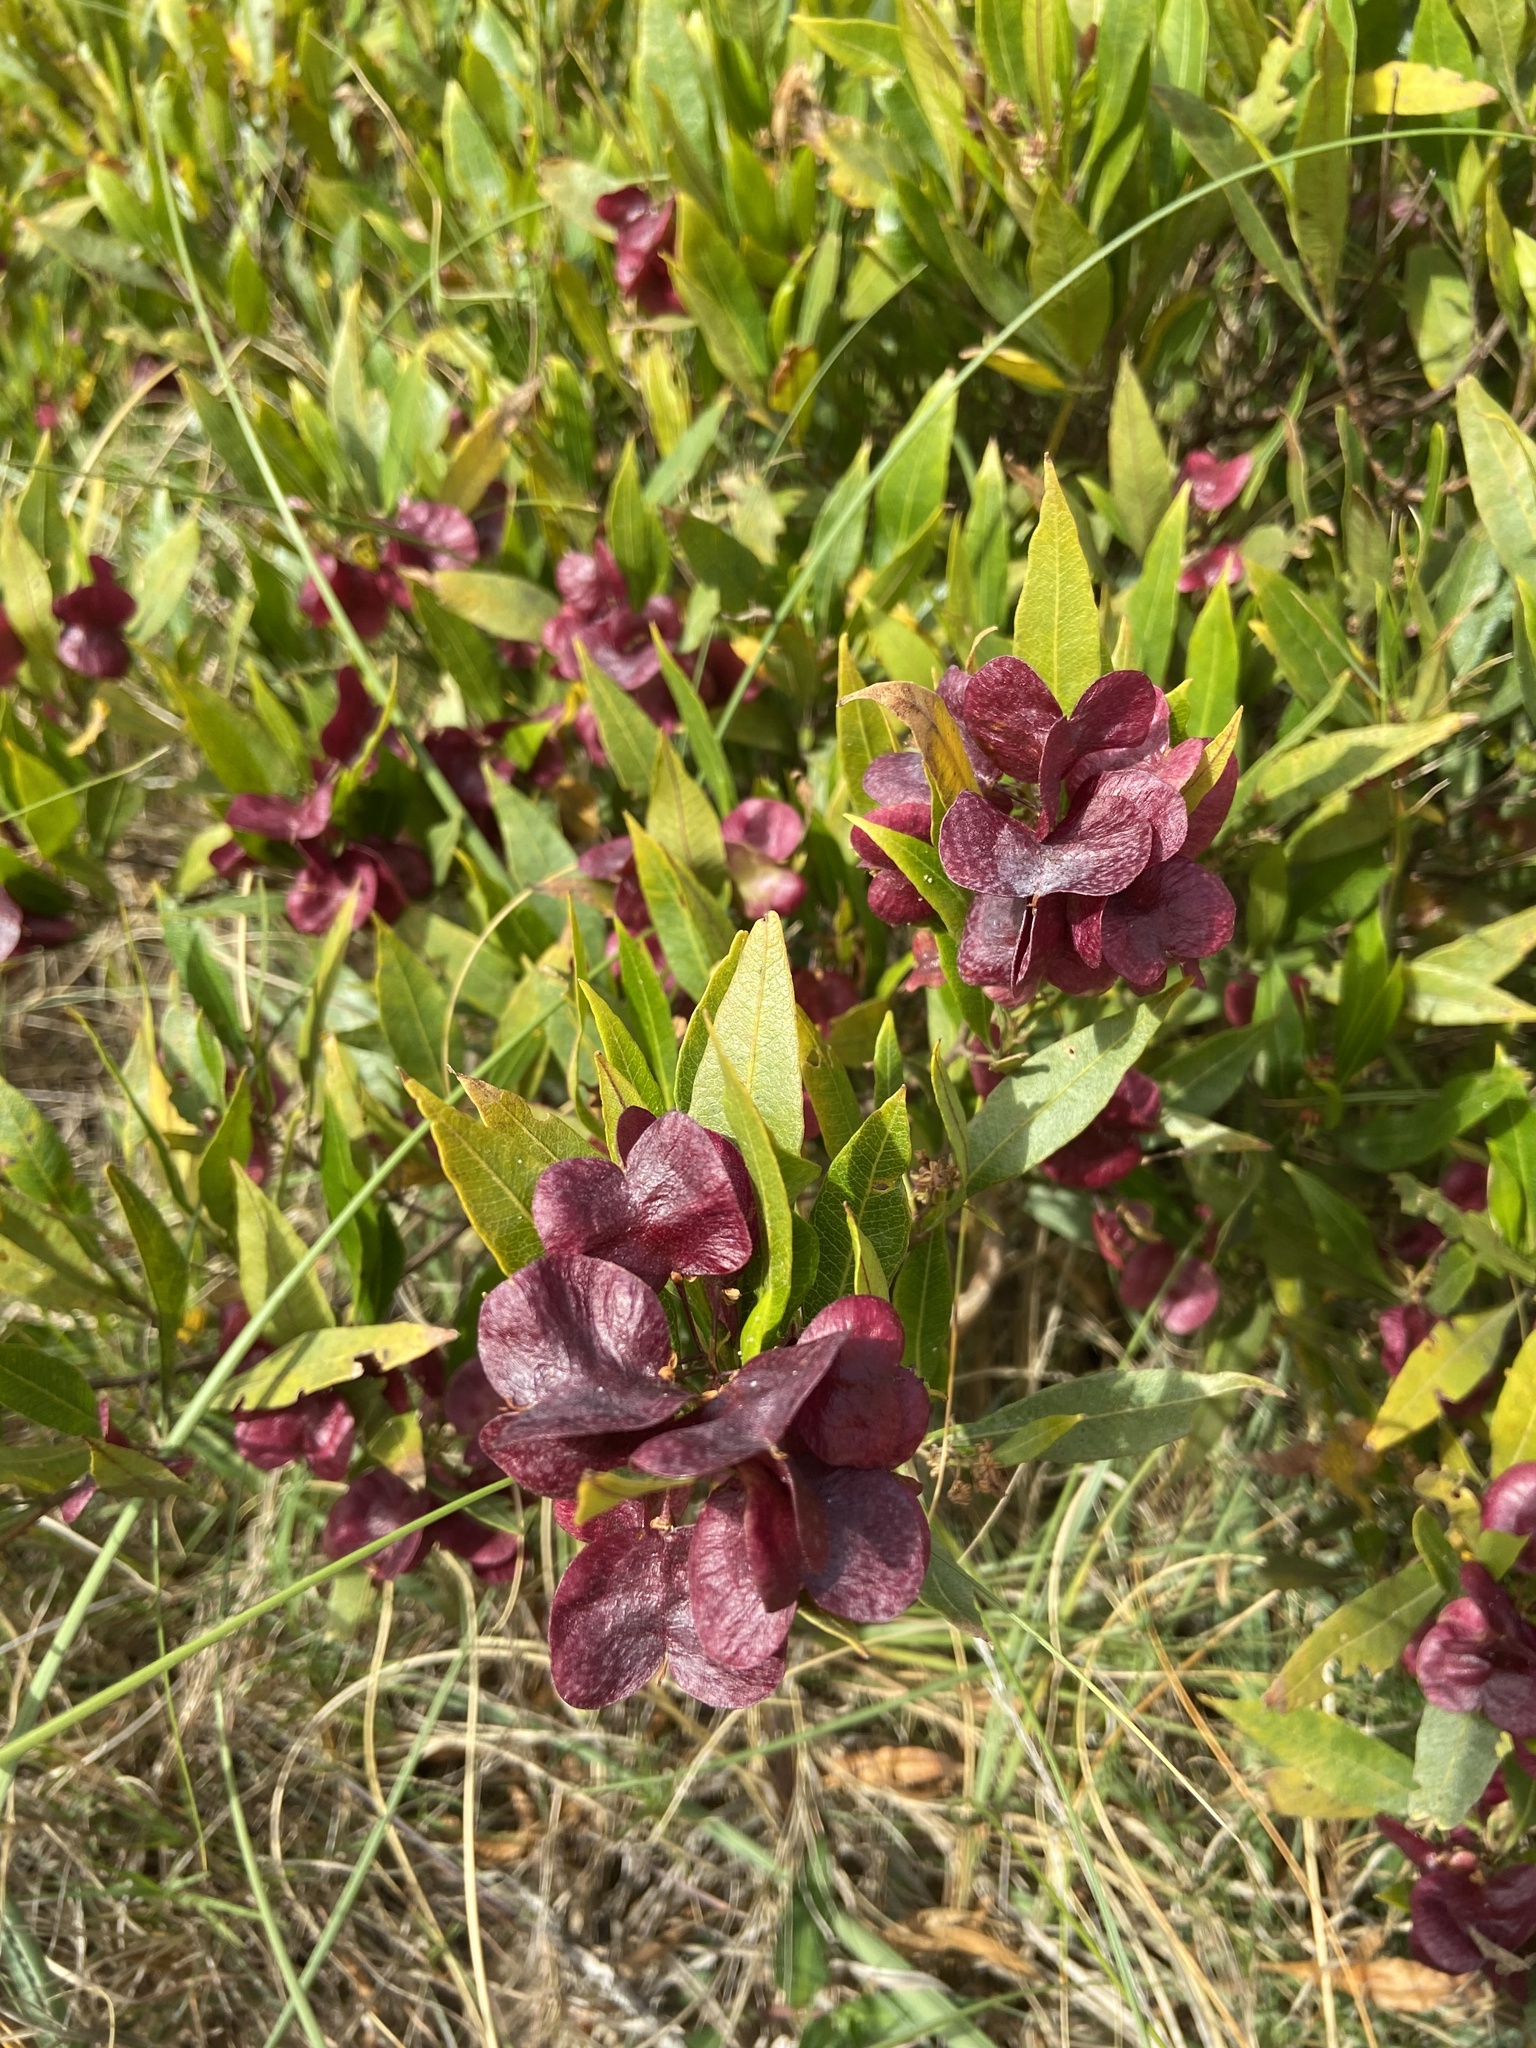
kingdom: Plantae
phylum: Tracheophyta
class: Magnoliopsida
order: Sapindales
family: Sapindaceae
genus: Dodonaea
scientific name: Dodonaea viscosa
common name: Hopbush
